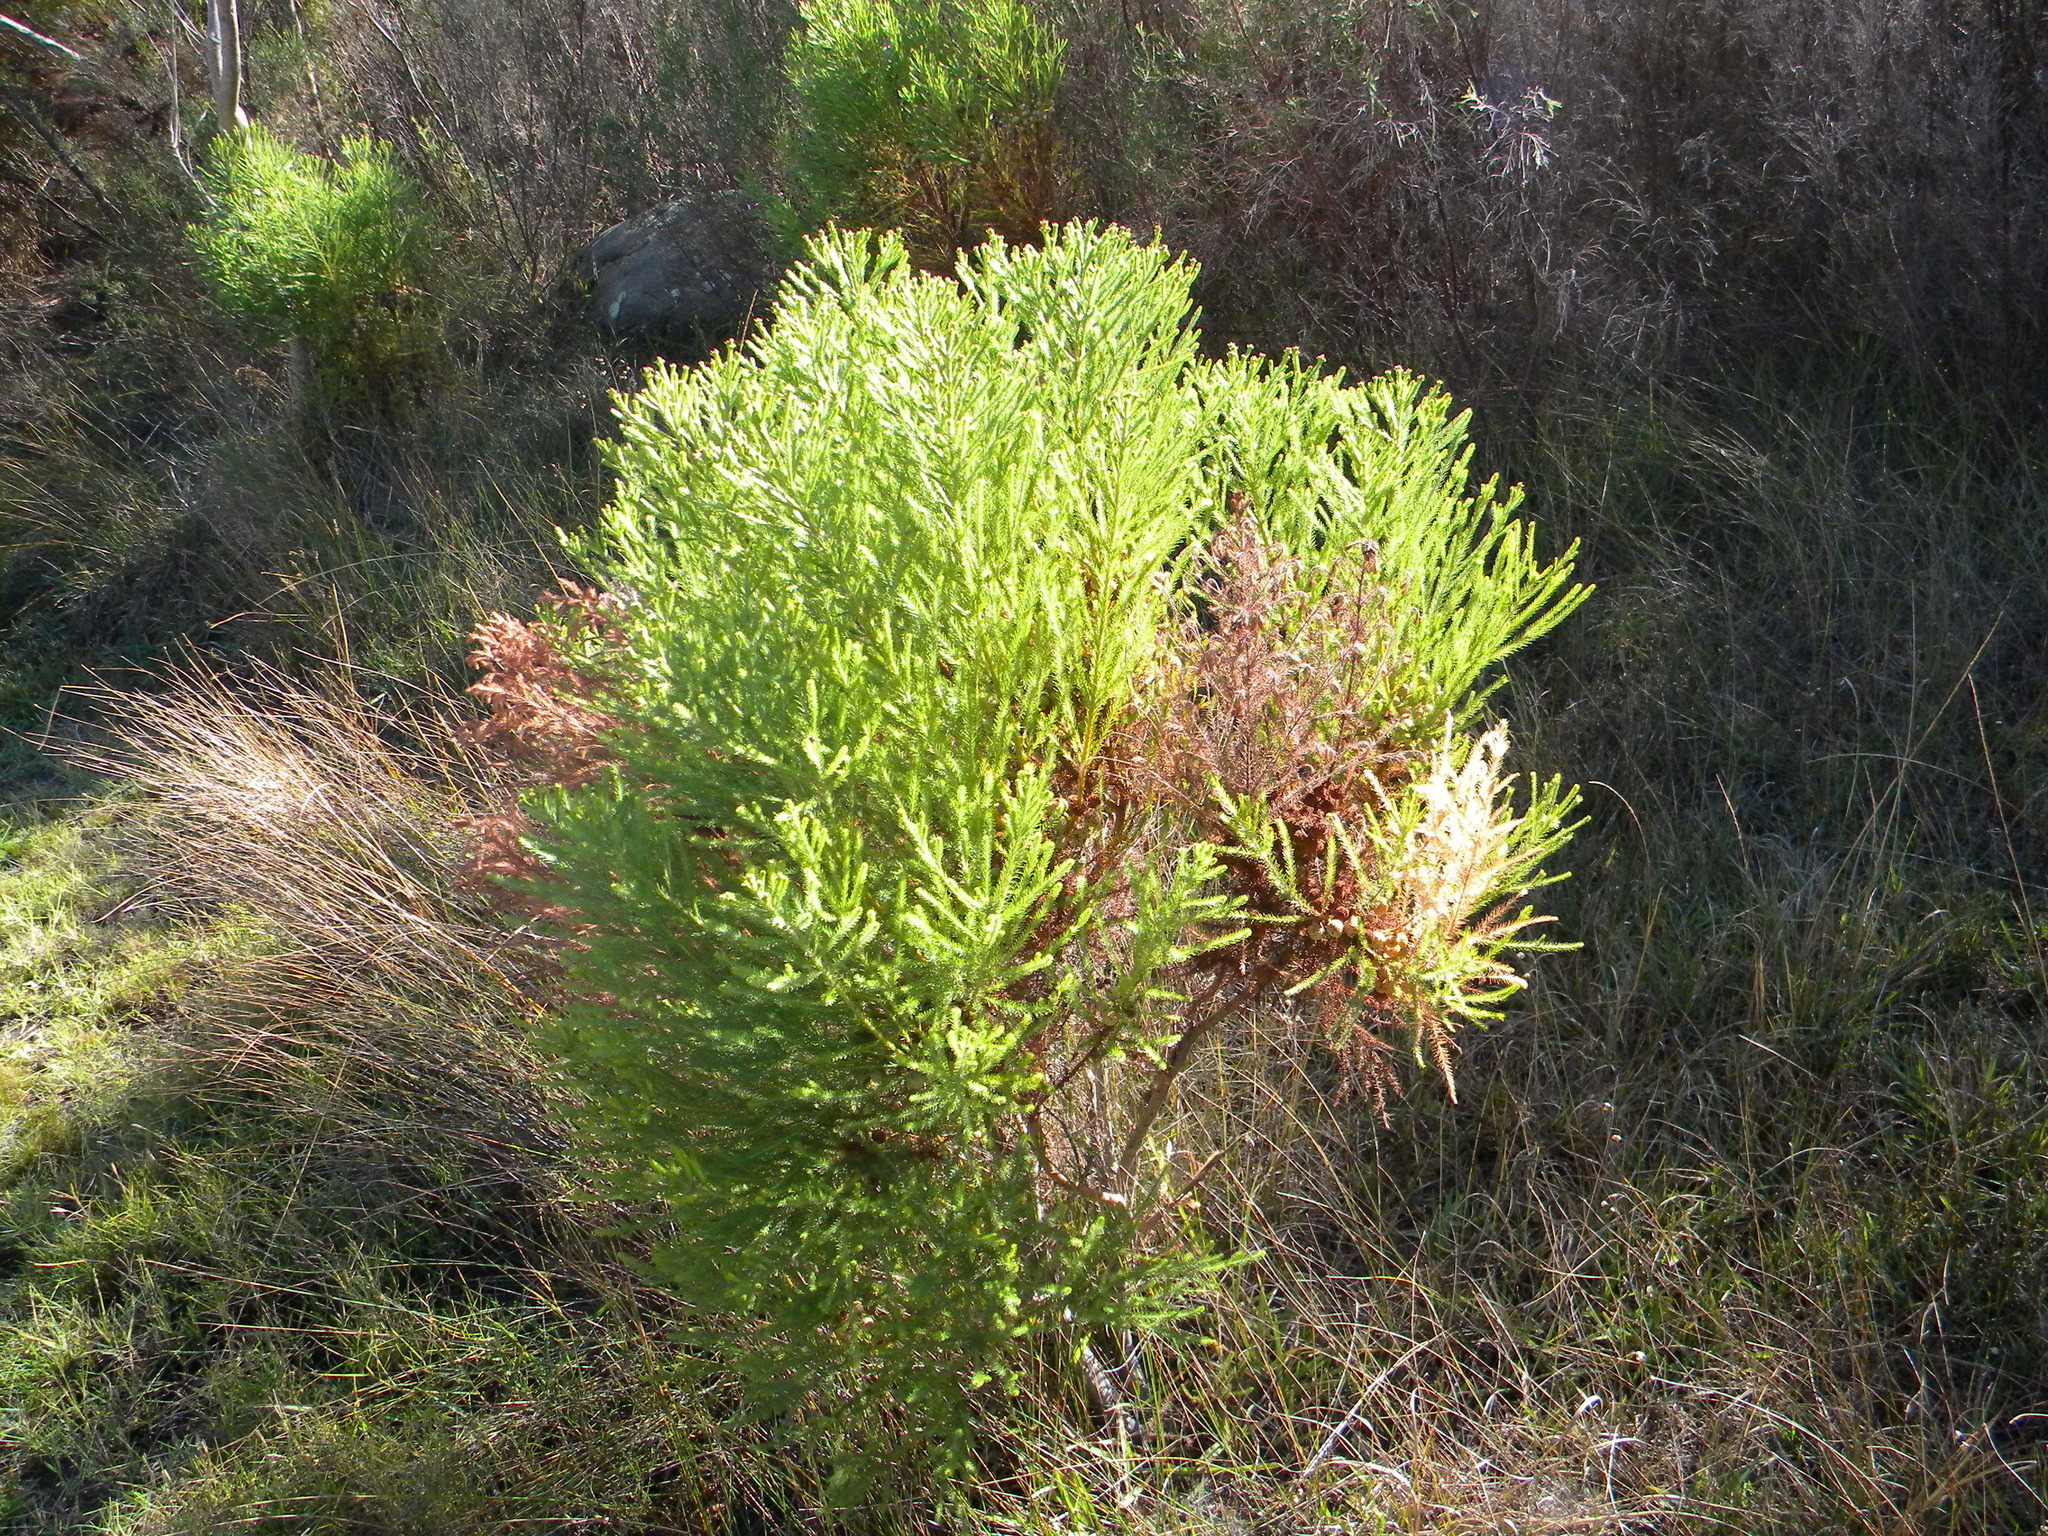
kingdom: Plantae
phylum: Tracheophyta
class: Magnoliopsida
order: Bruniales
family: Bruniaceae
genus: Berzelia
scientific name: Berzelia lanuginosa
